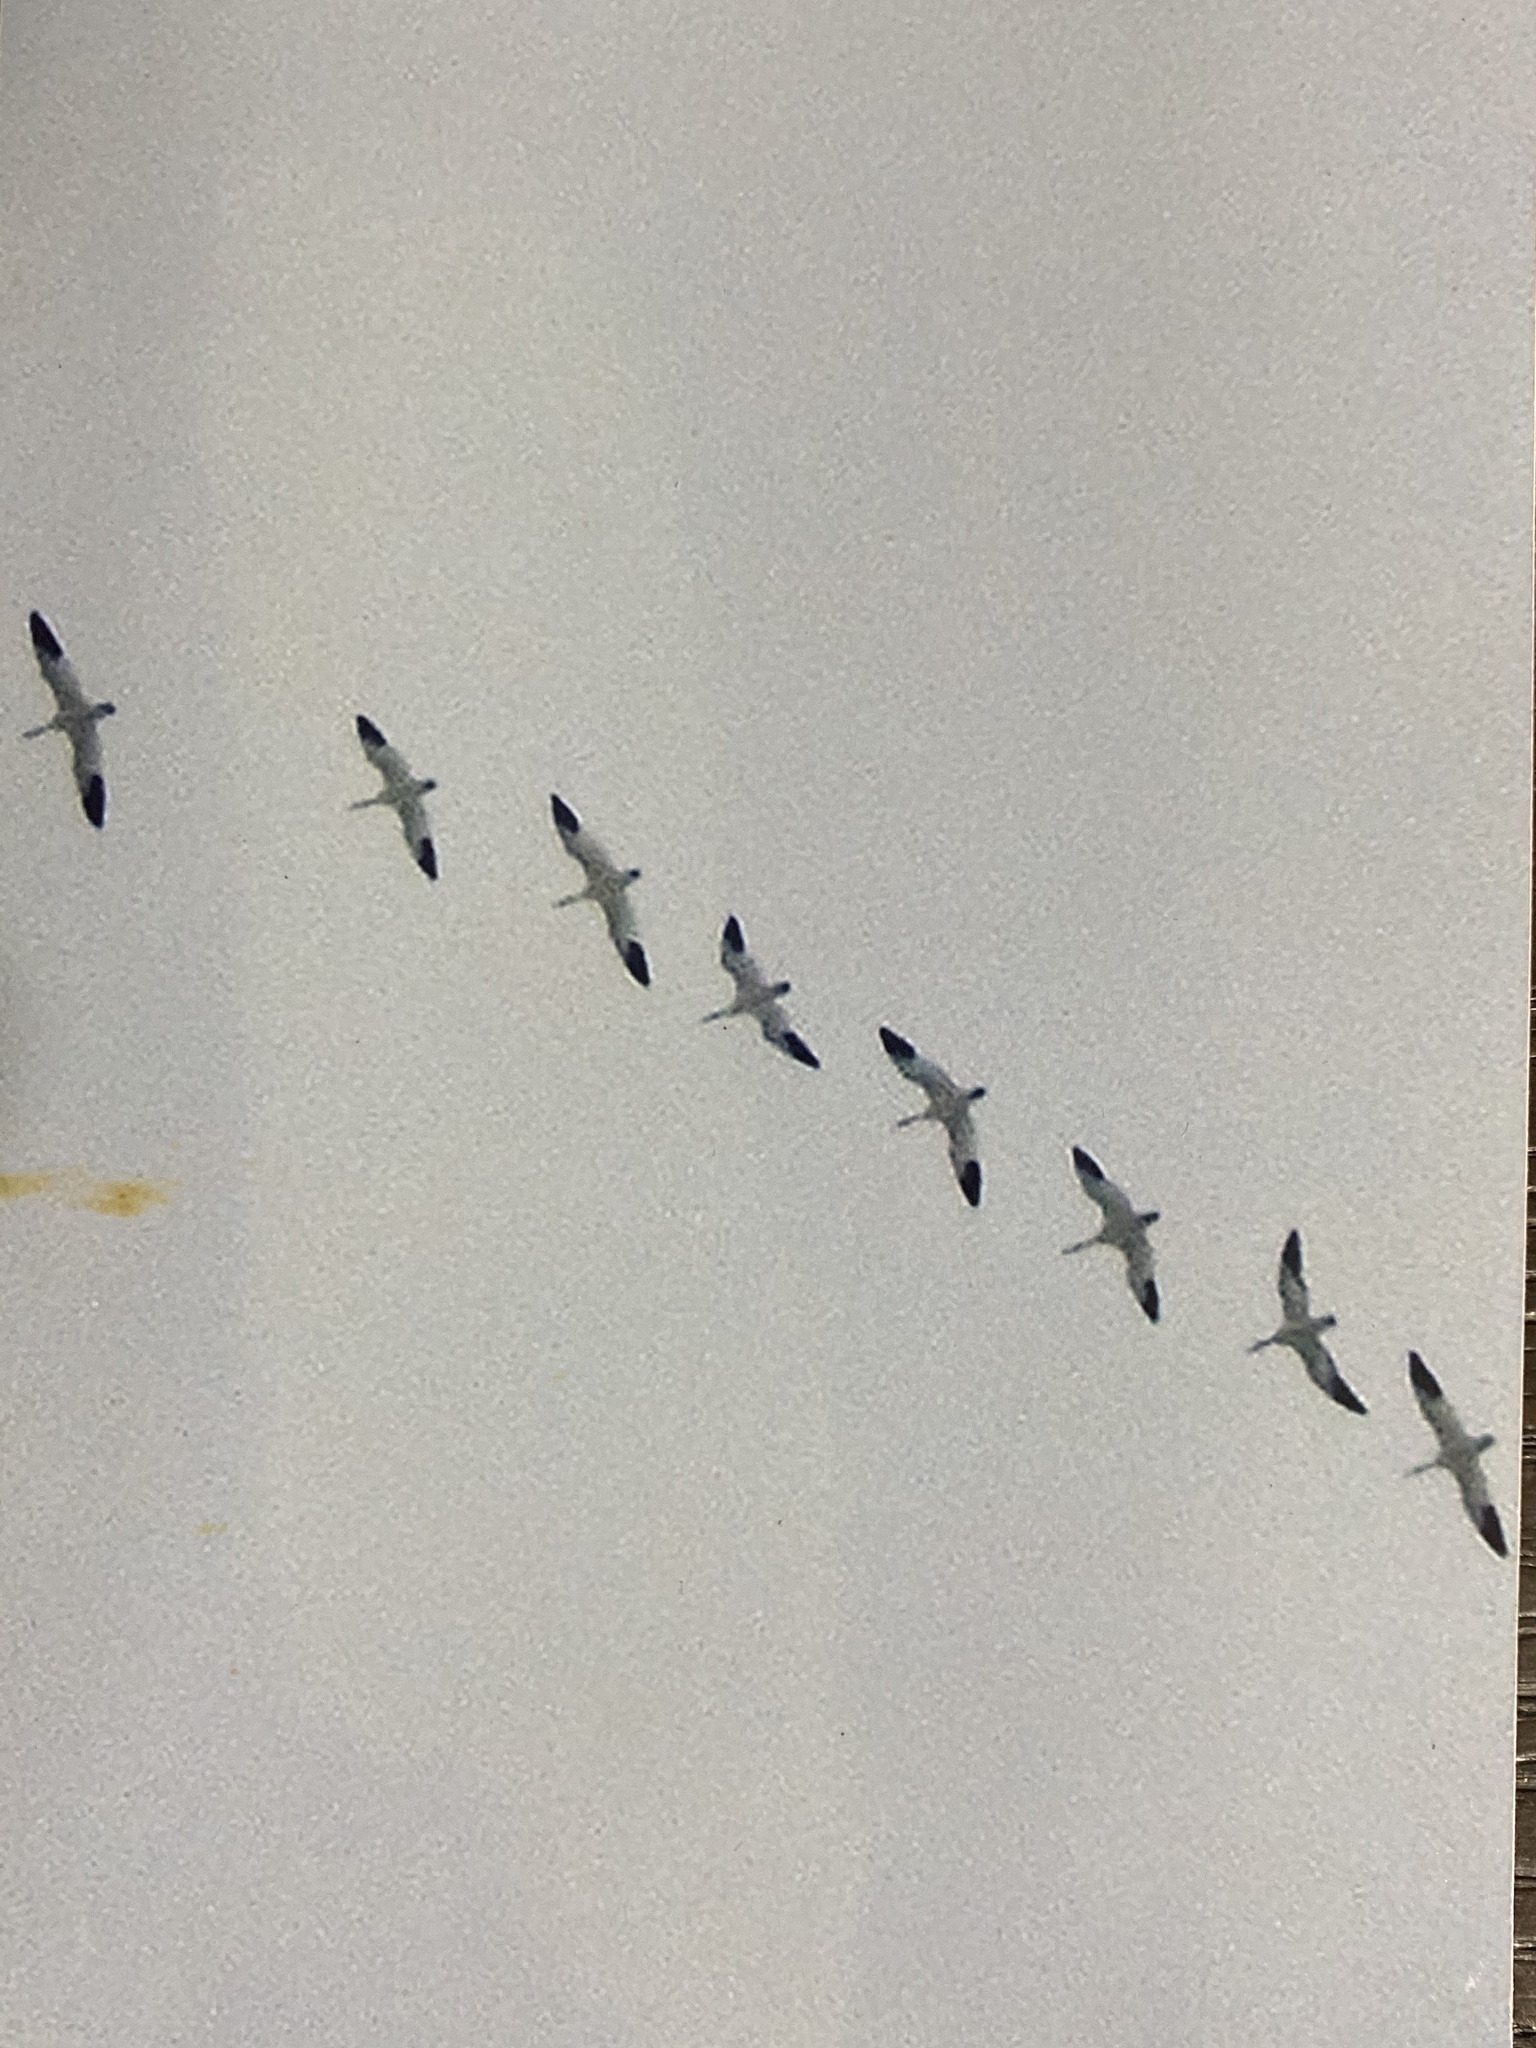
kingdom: Animalia
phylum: Chordata
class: Aves
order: Anseriformes
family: Anatidae
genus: Anser
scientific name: Anser caerulescens
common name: Snow goose
